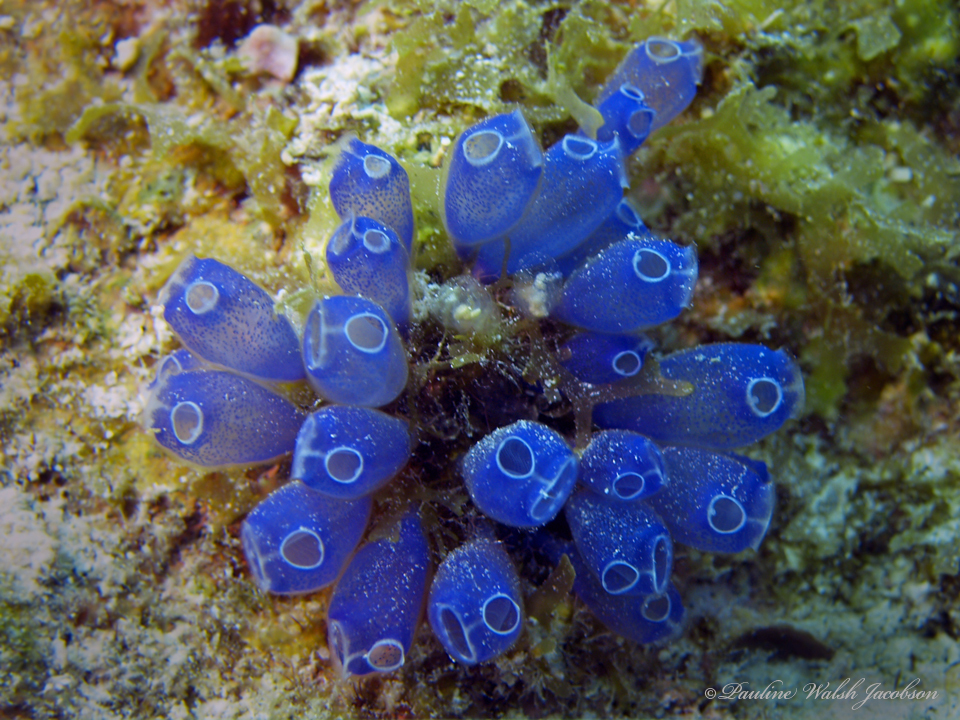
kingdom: Animalia
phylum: Chordata
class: Ascidiacea
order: Aplousobranchia
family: Clavelinidae
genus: Clavelina
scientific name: Clavelina puertosecensis
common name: Blue bell tunicate
